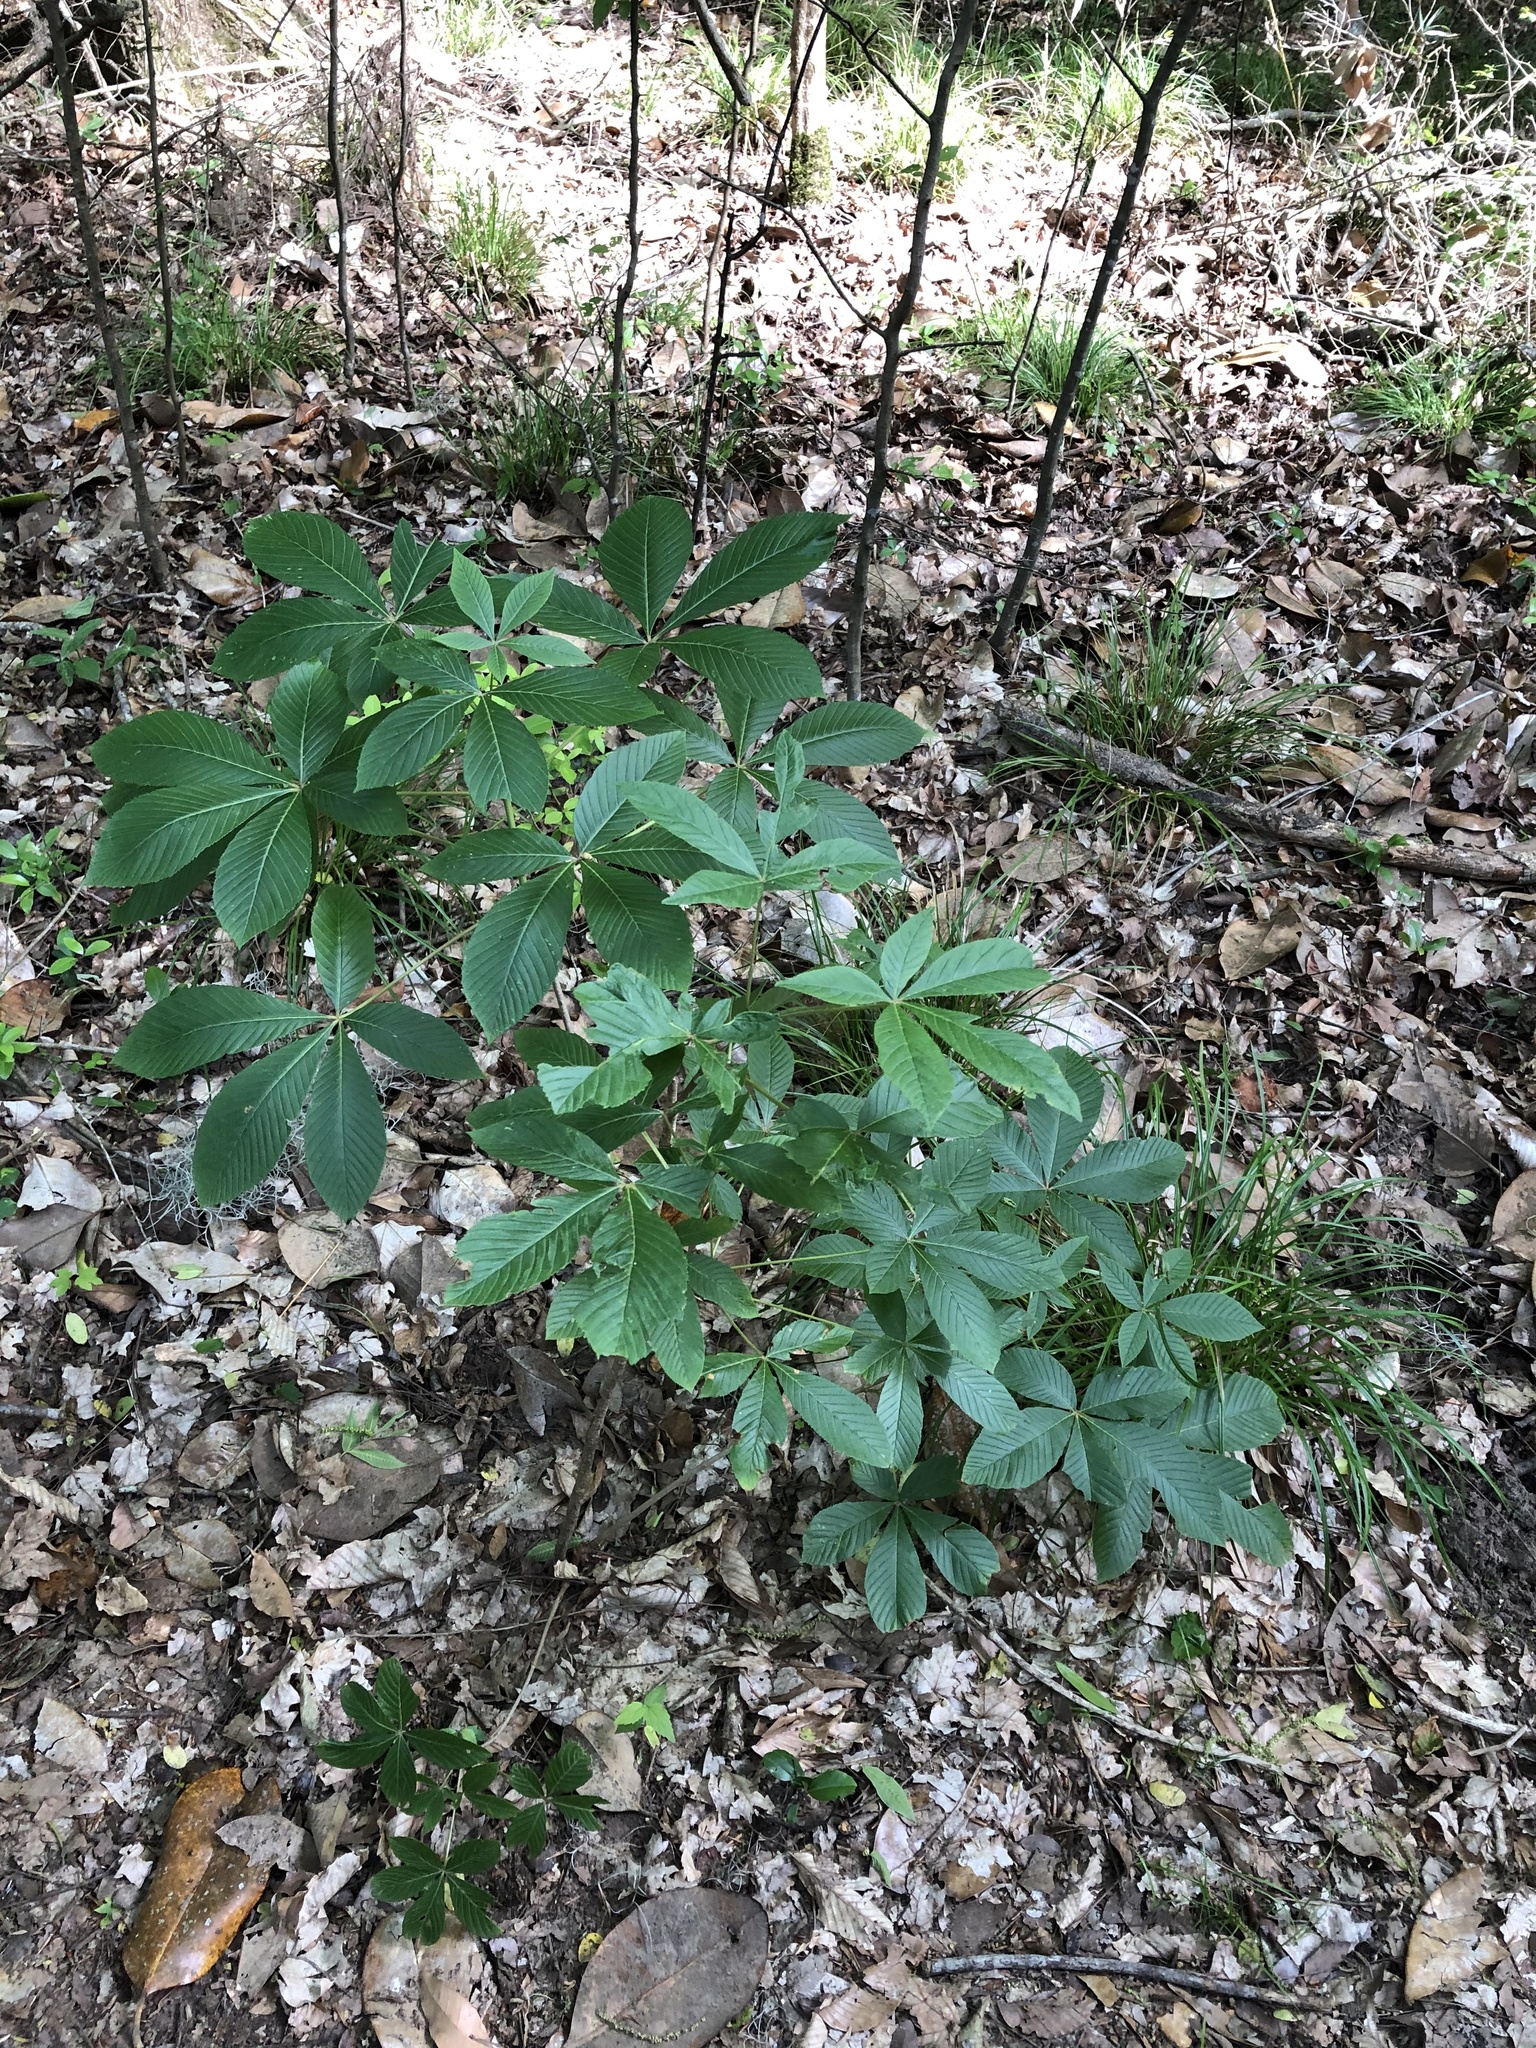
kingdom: Plantae
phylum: Tracheophyta
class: Magnoliopsida
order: Sapindales
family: Sapindaceae
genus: Aesculus
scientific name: Aesculus pavia
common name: Red buckeye
